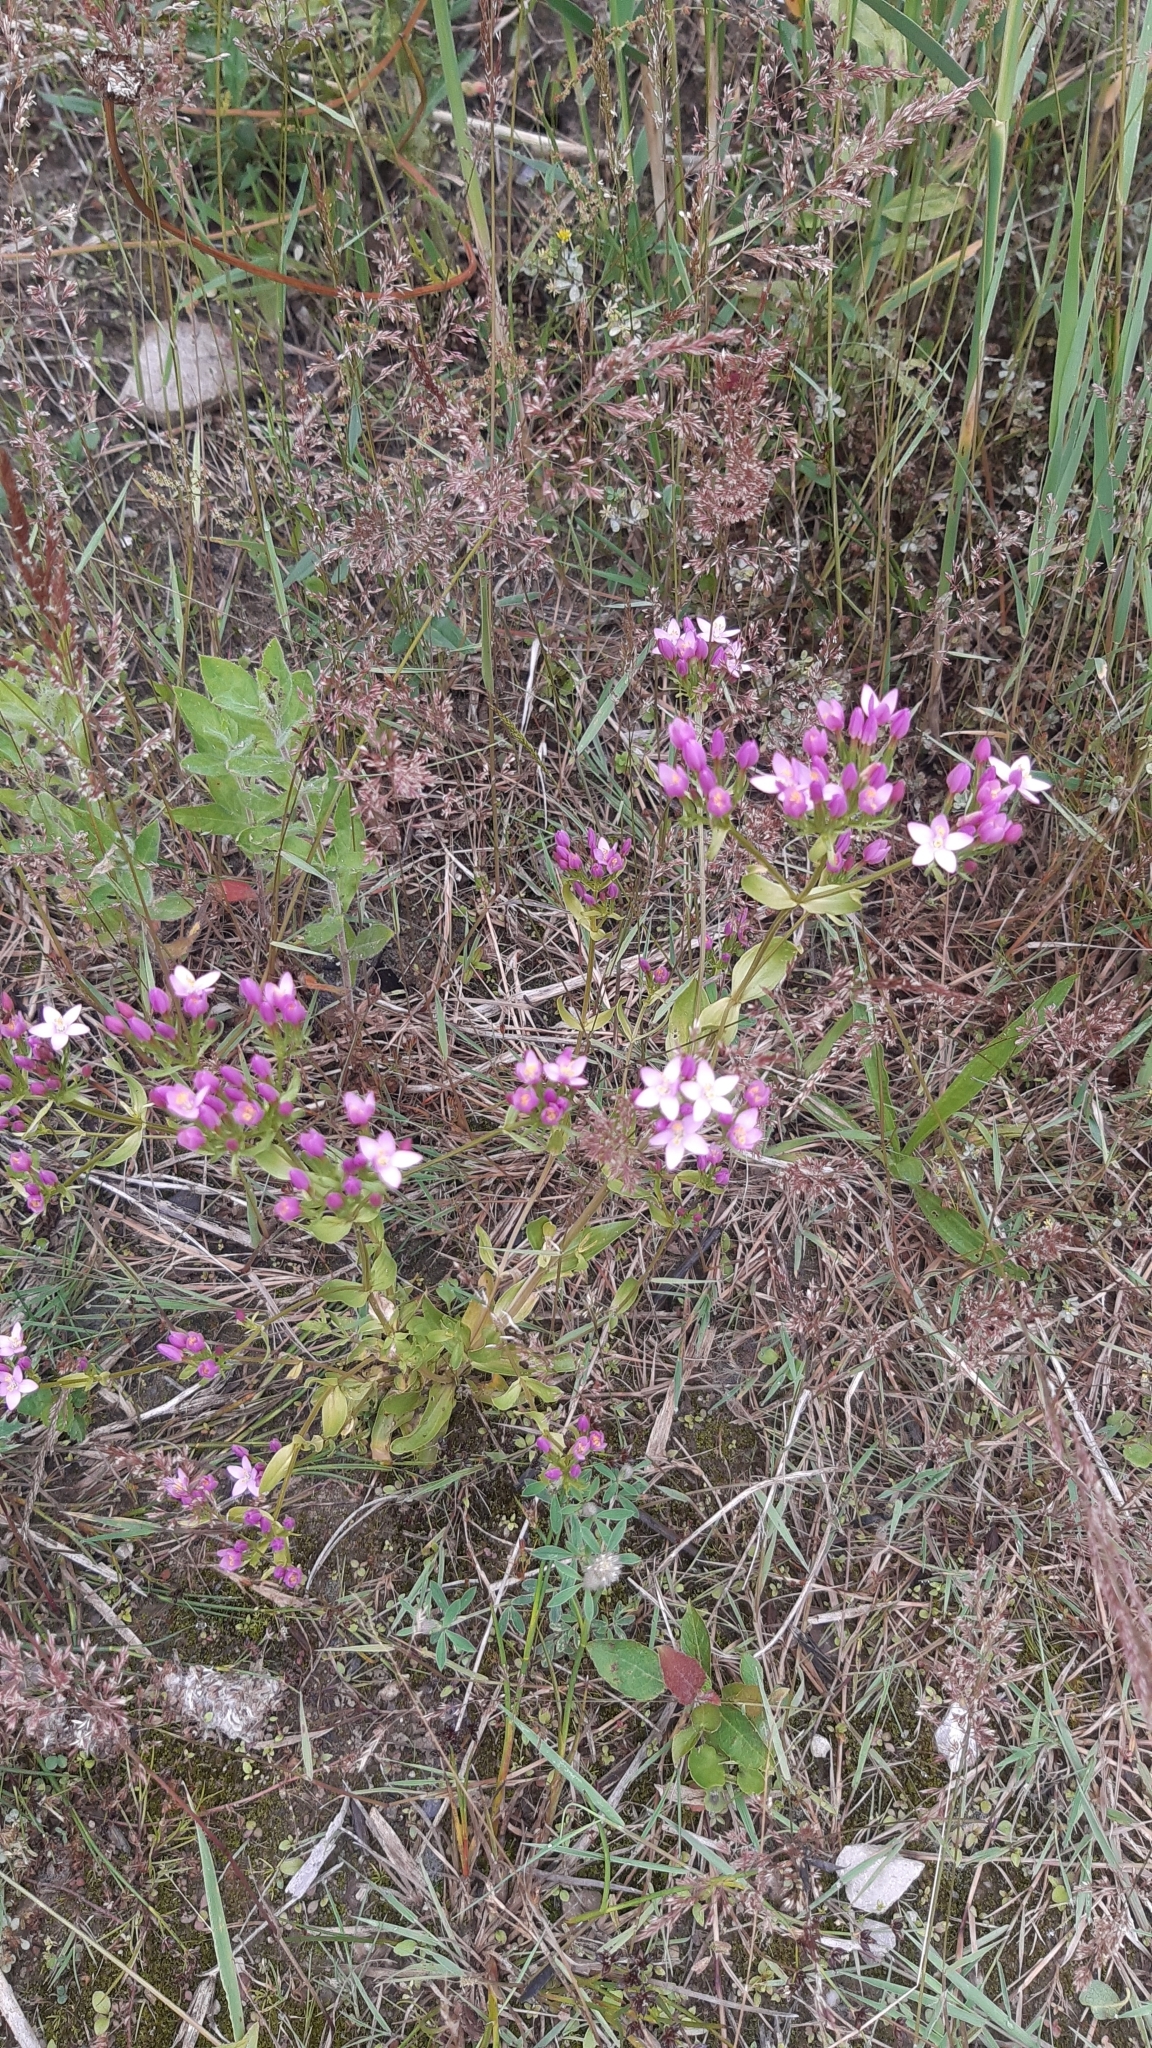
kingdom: Plantae
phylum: Tracheophyta
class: Magnoliopsida
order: Gentianales
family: Gentianaceae
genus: Centaurium
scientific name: Centaurium erythraea
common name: Common centaury
